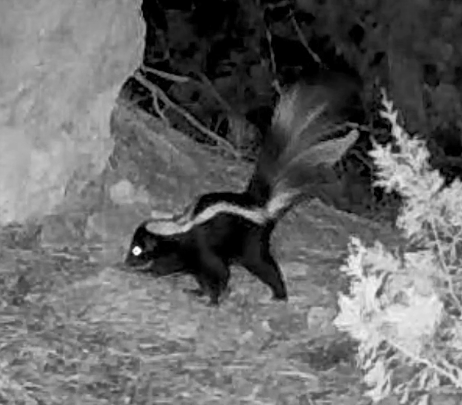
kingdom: Animalia
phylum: Chordata
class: Mammalia
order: Carnivora
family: Mephitidae
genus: Mephitis
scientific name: Mephitis mephitis
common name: Striped skunk
